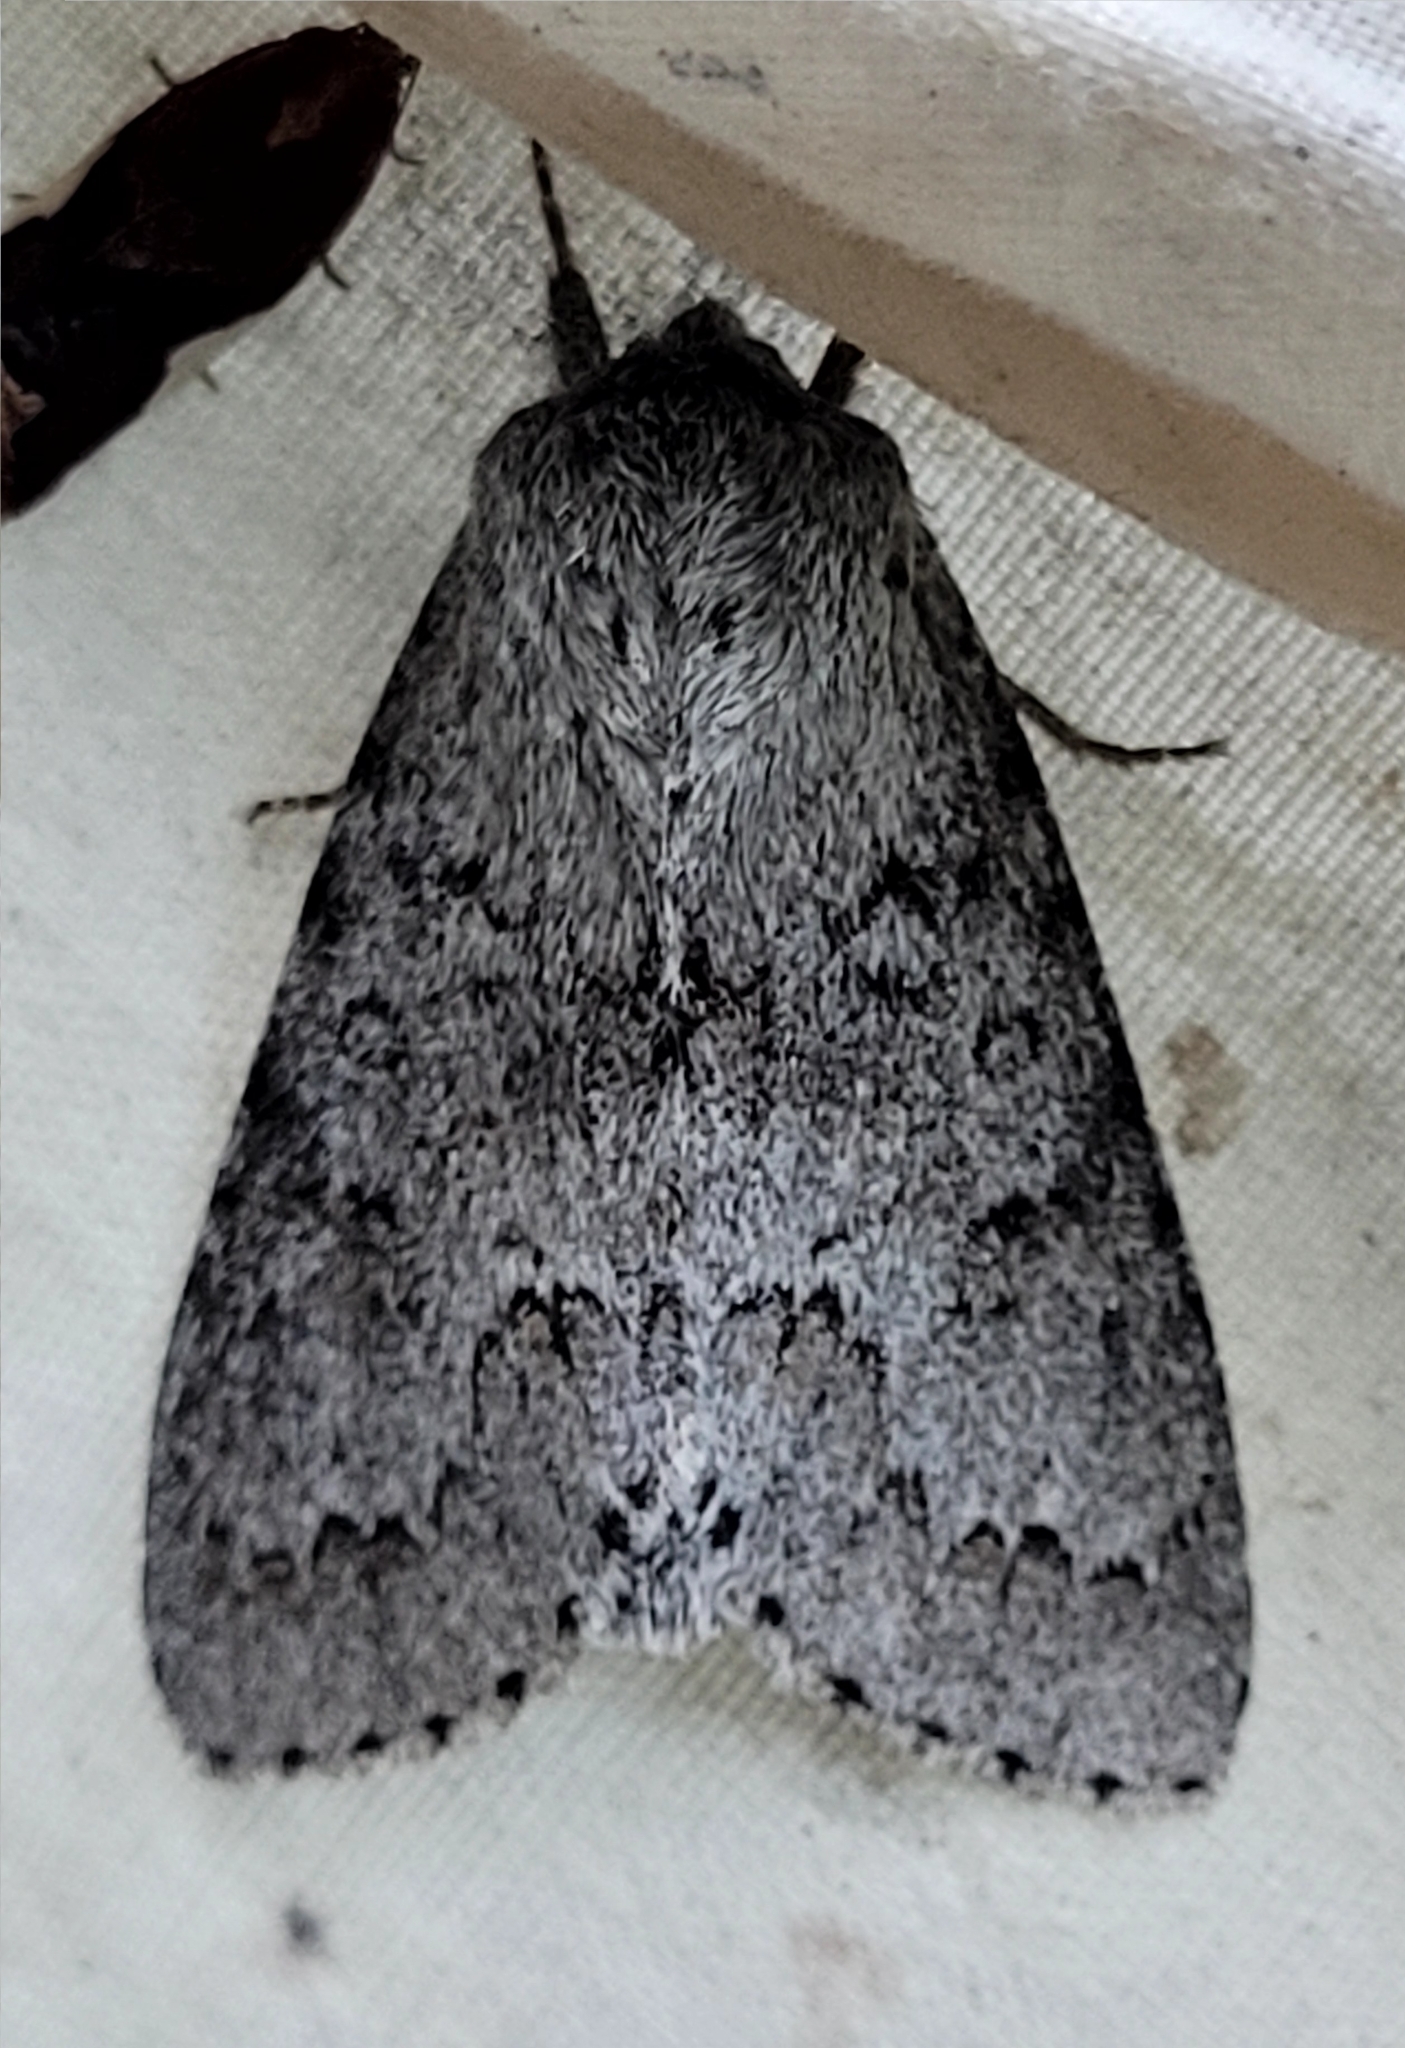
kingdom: Animalia
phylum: Arthropoda
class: Insecta
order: Lepidoptera
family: Noctuidae
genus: Acronicta
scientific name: Acronicta insita
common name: Large gray dagger
